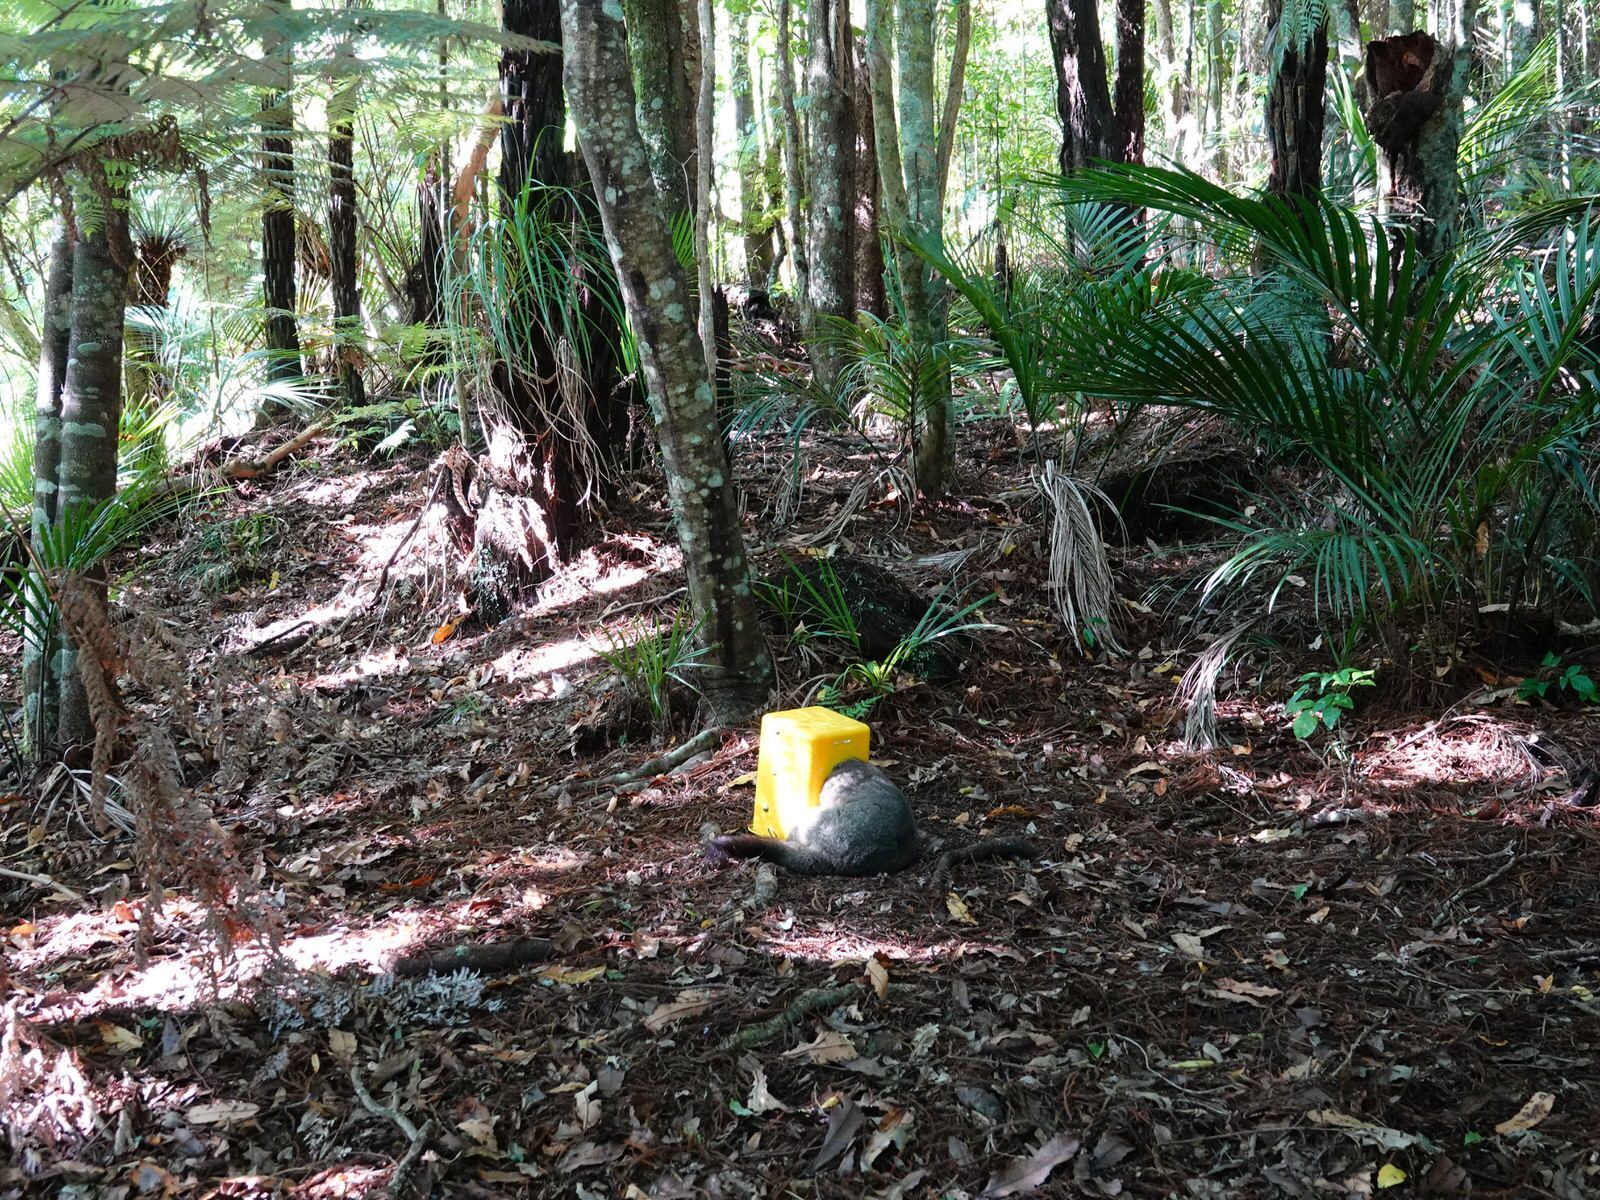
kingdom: Animalia
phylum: Chordata
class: Mammalia
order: Diprotodontia
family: Phalangeridae
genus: Trichosurus
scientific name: Trichosurus vulpecula
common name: Common brushtail
